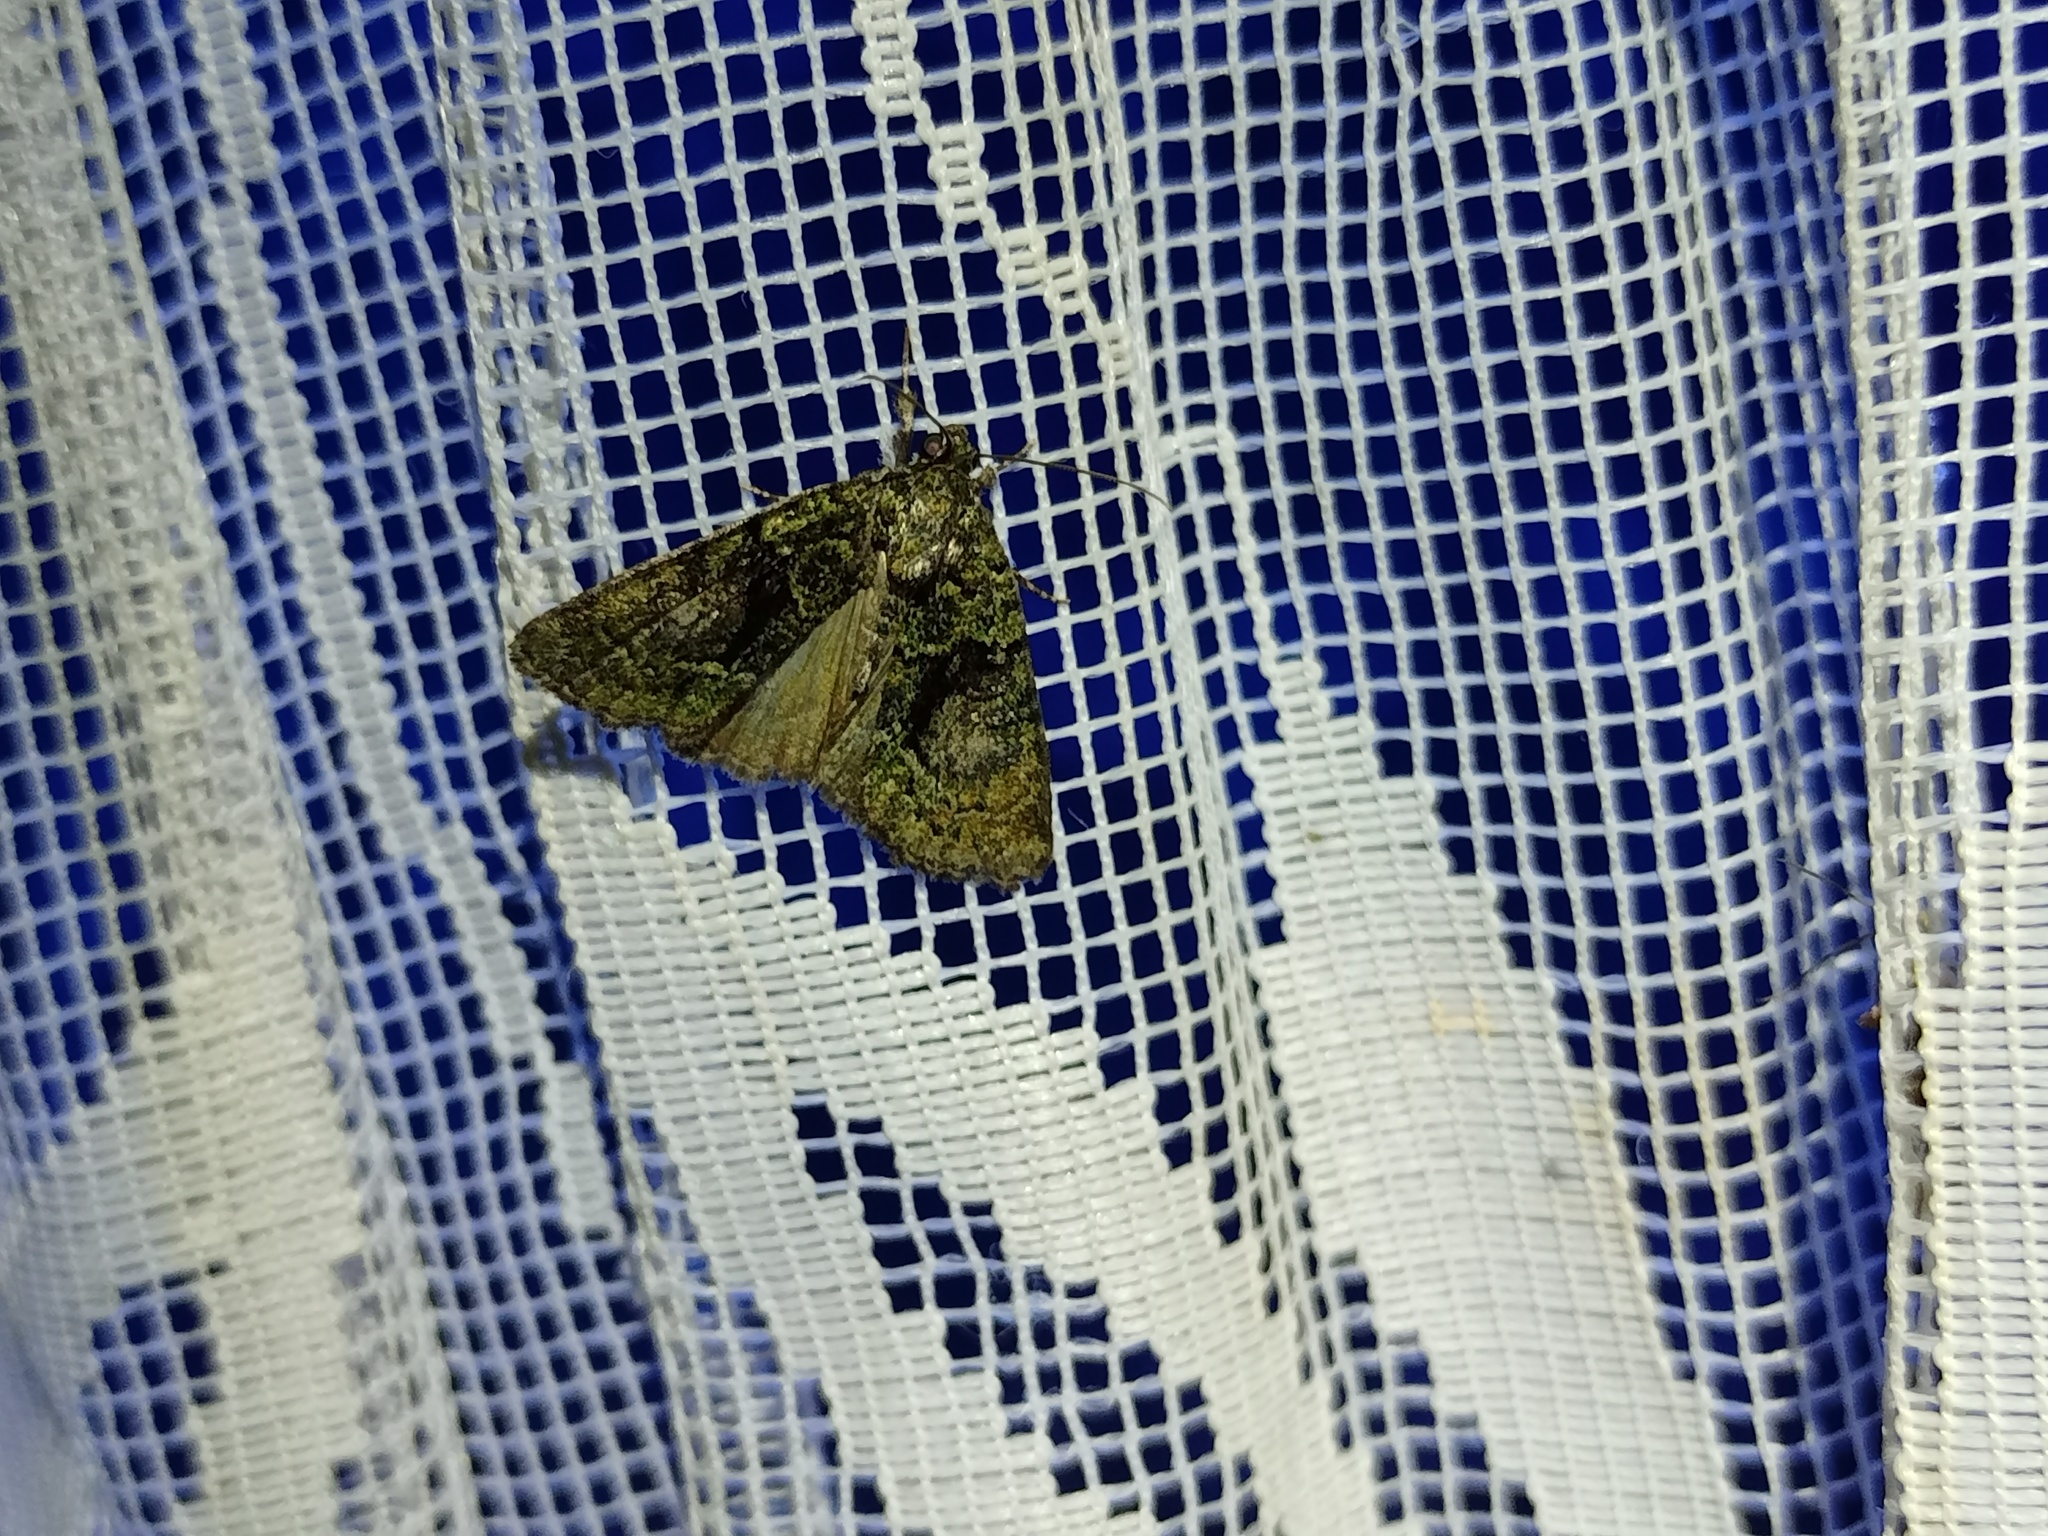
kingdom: Animalia
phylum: Arthropoda
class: Insecta
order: Lepidoptera
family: Noctuidae
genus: Cryphia
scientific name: Cryphia algae
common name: Tree-lichen beauty
